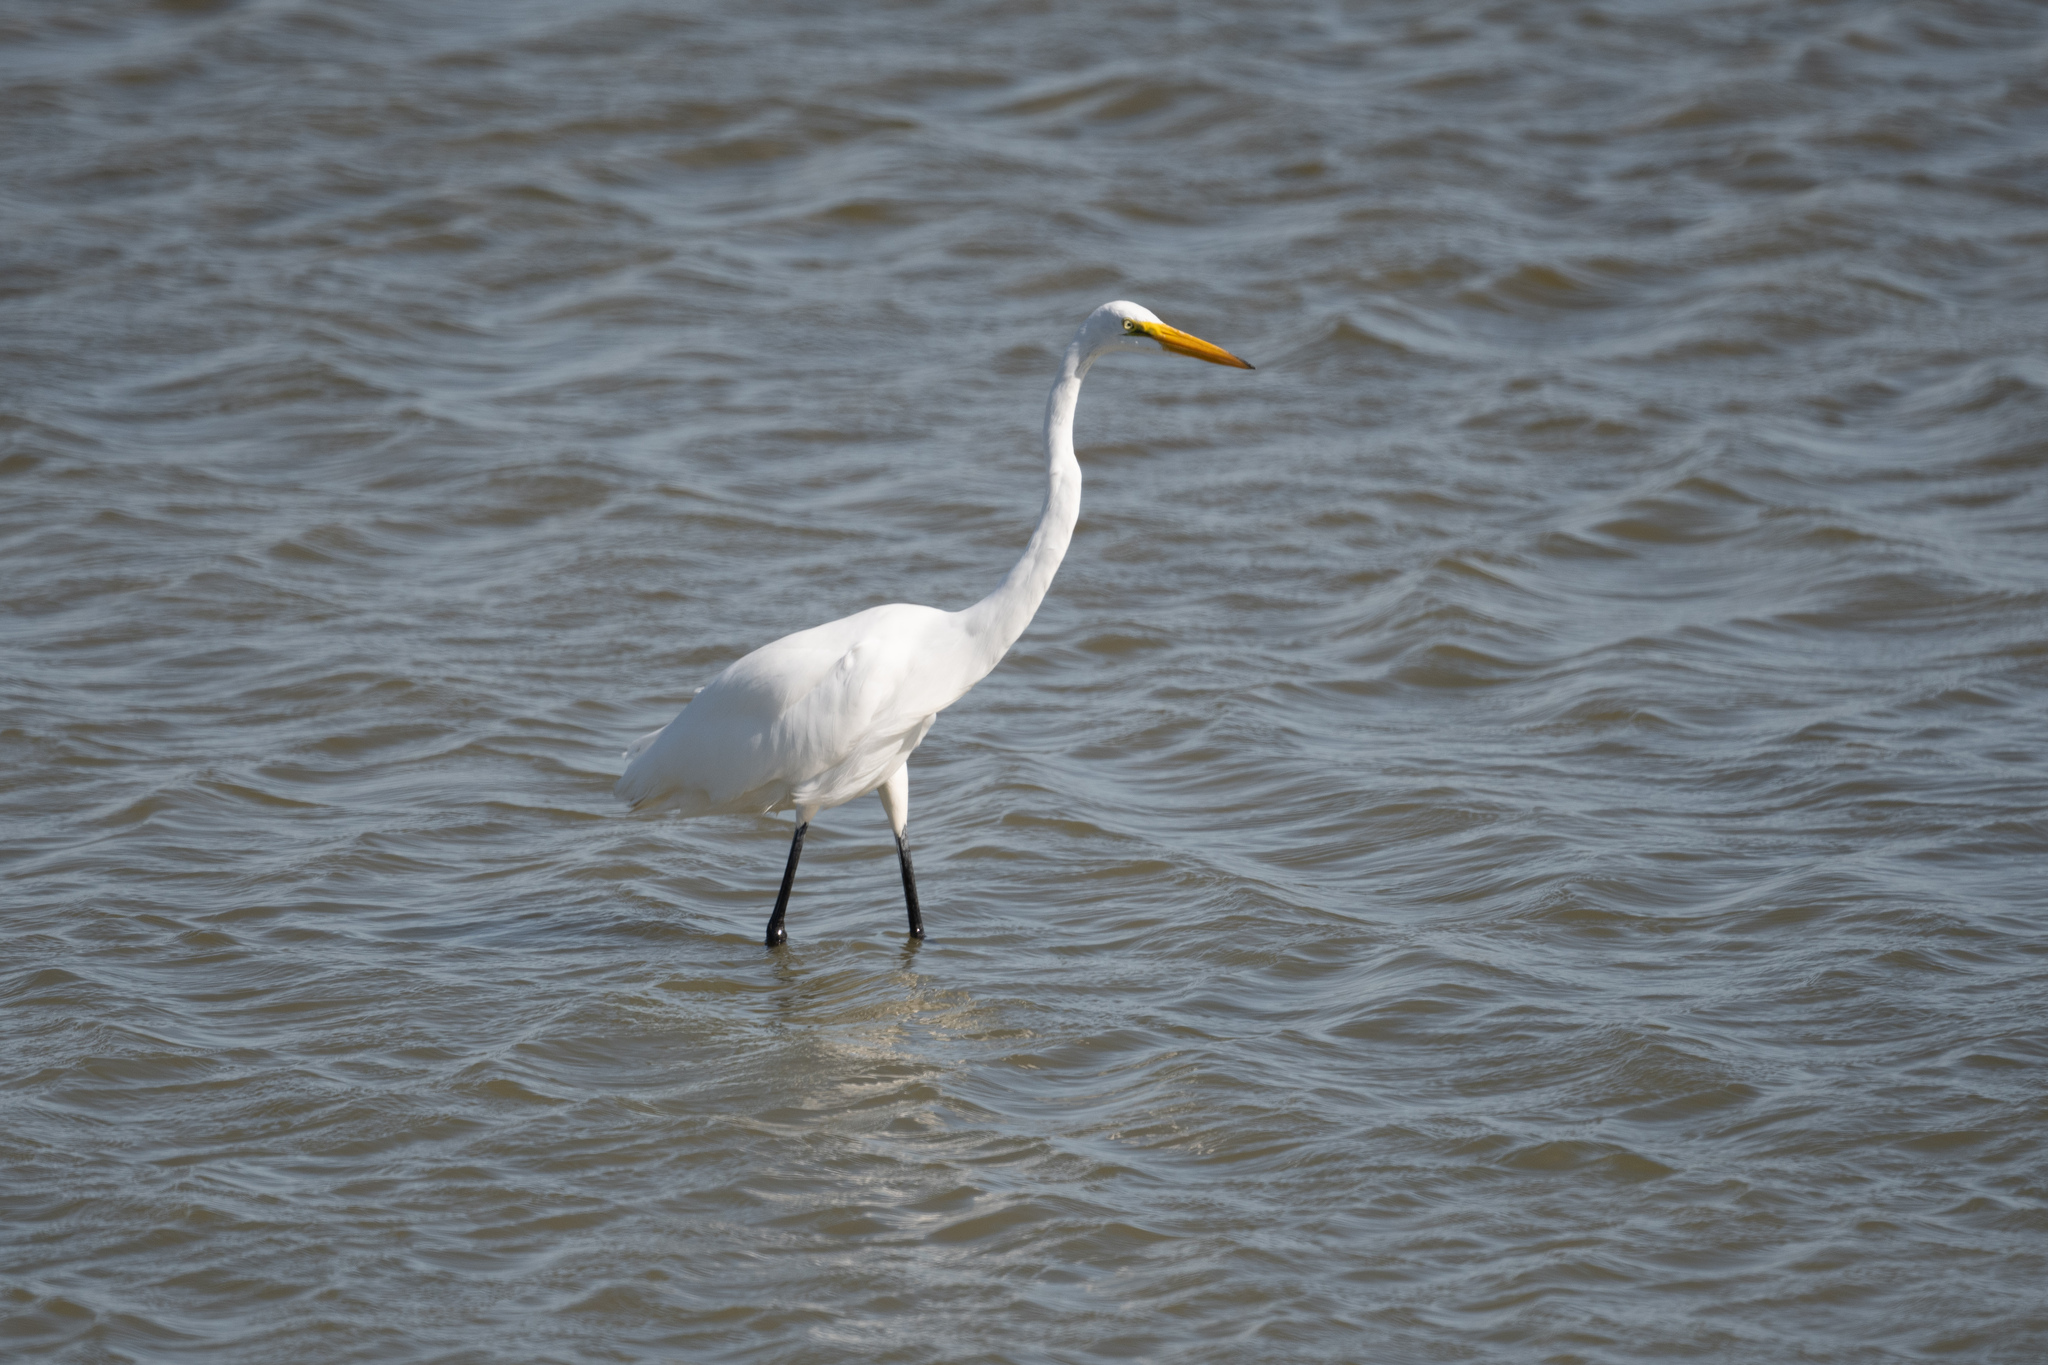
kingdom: Animalia
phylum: Chordata
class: Aves
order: Pelecaniformes
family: Ardeidae
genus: Ardea
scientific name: Ardea alba
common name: Great egret
